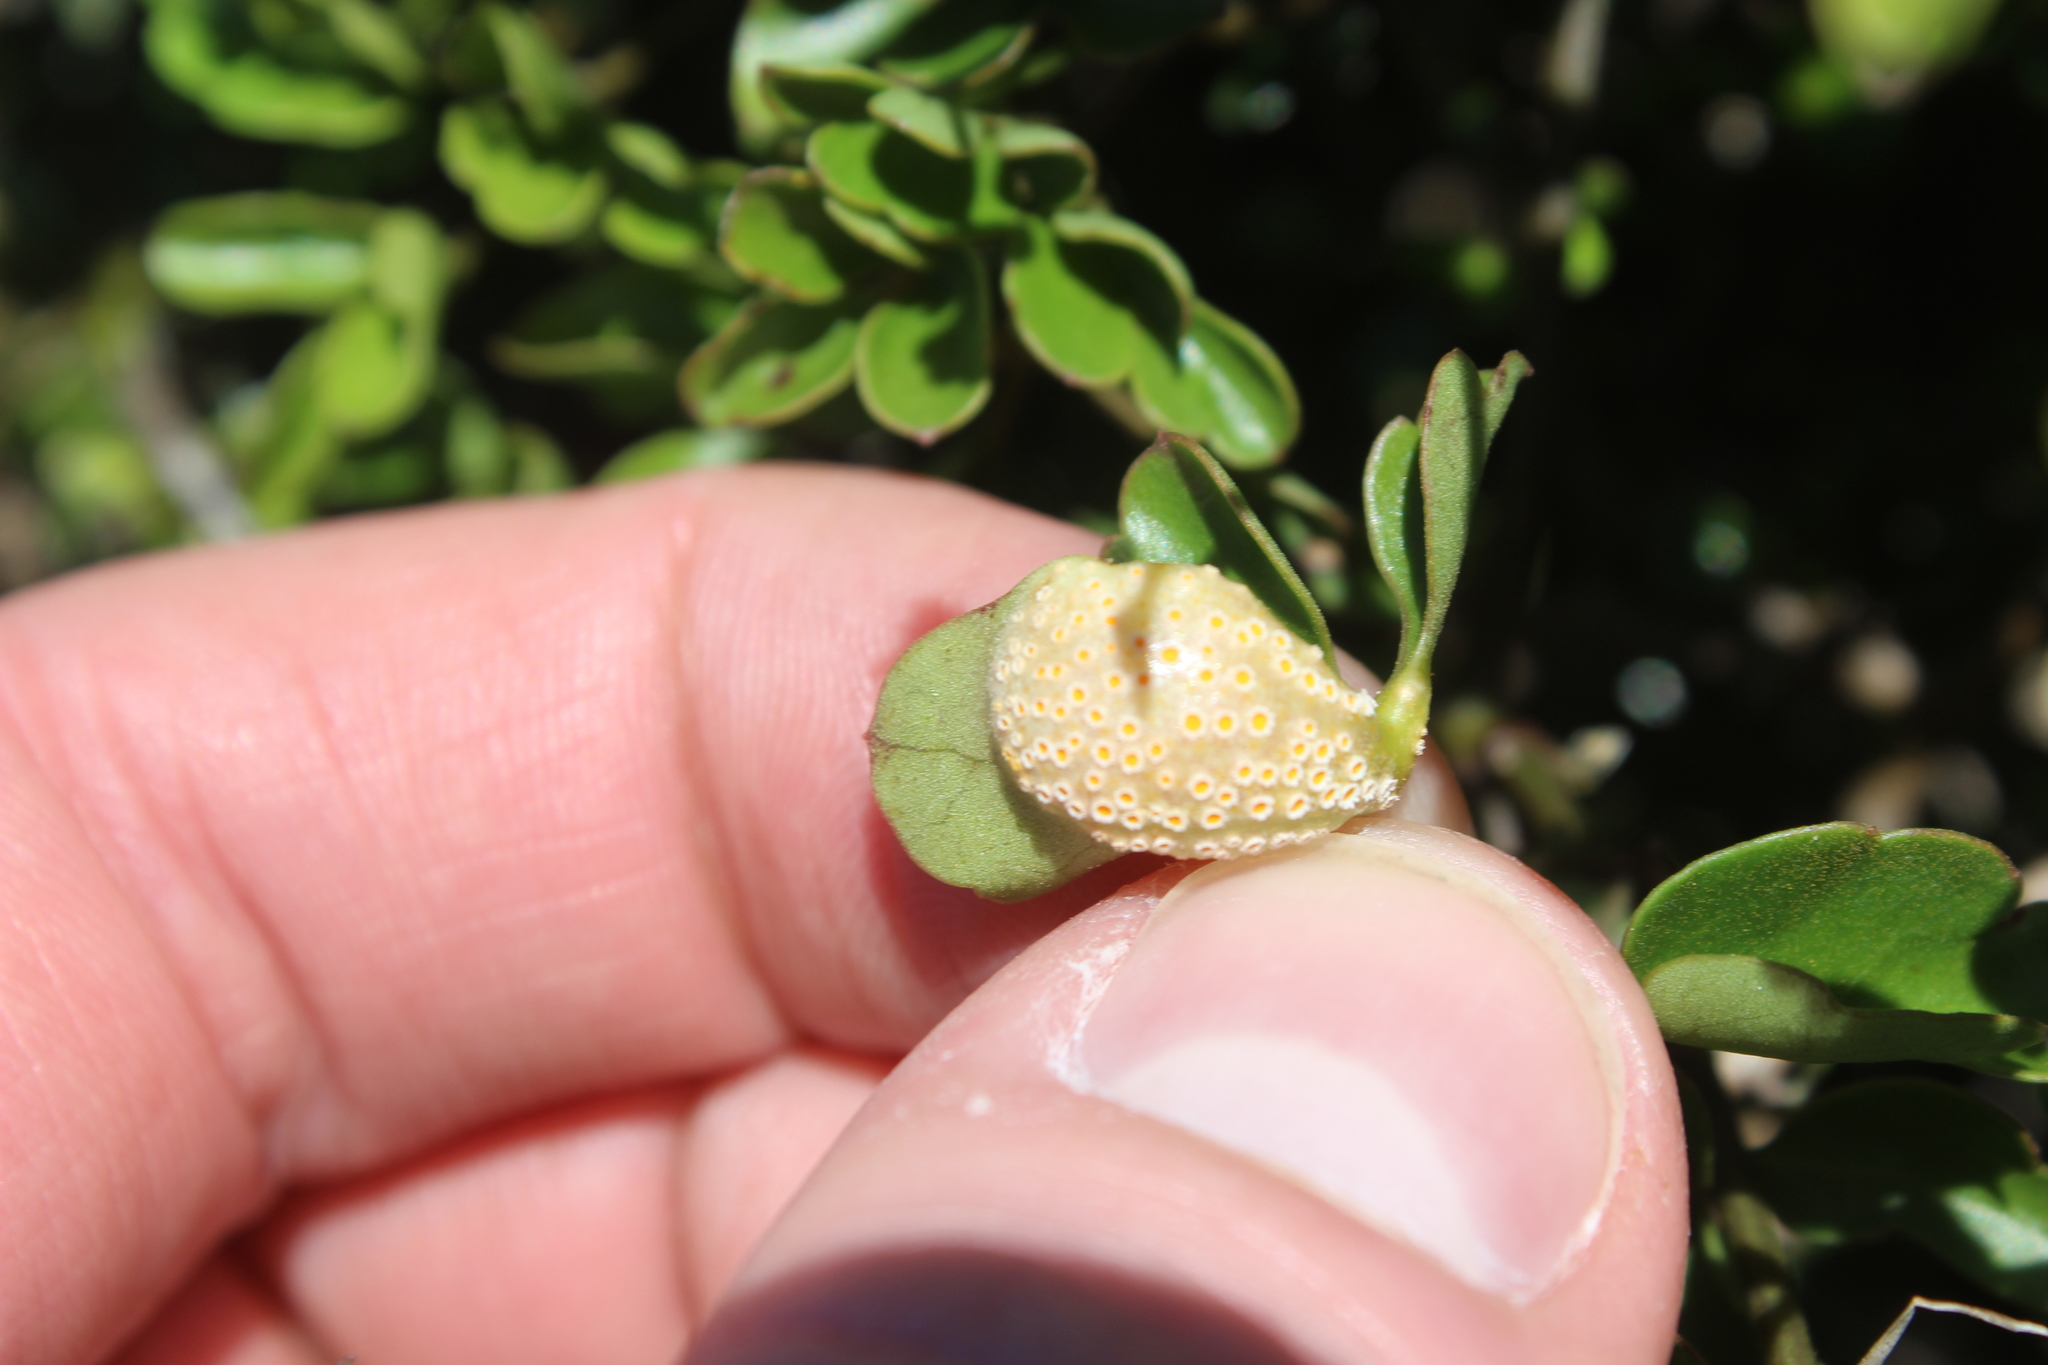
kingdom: Fungi
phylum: Basidiomycota
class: Pucciniomycetes
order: Pucciniales
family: Pucciniaceae
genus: Puccinia
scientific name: Puccinia otagensis
